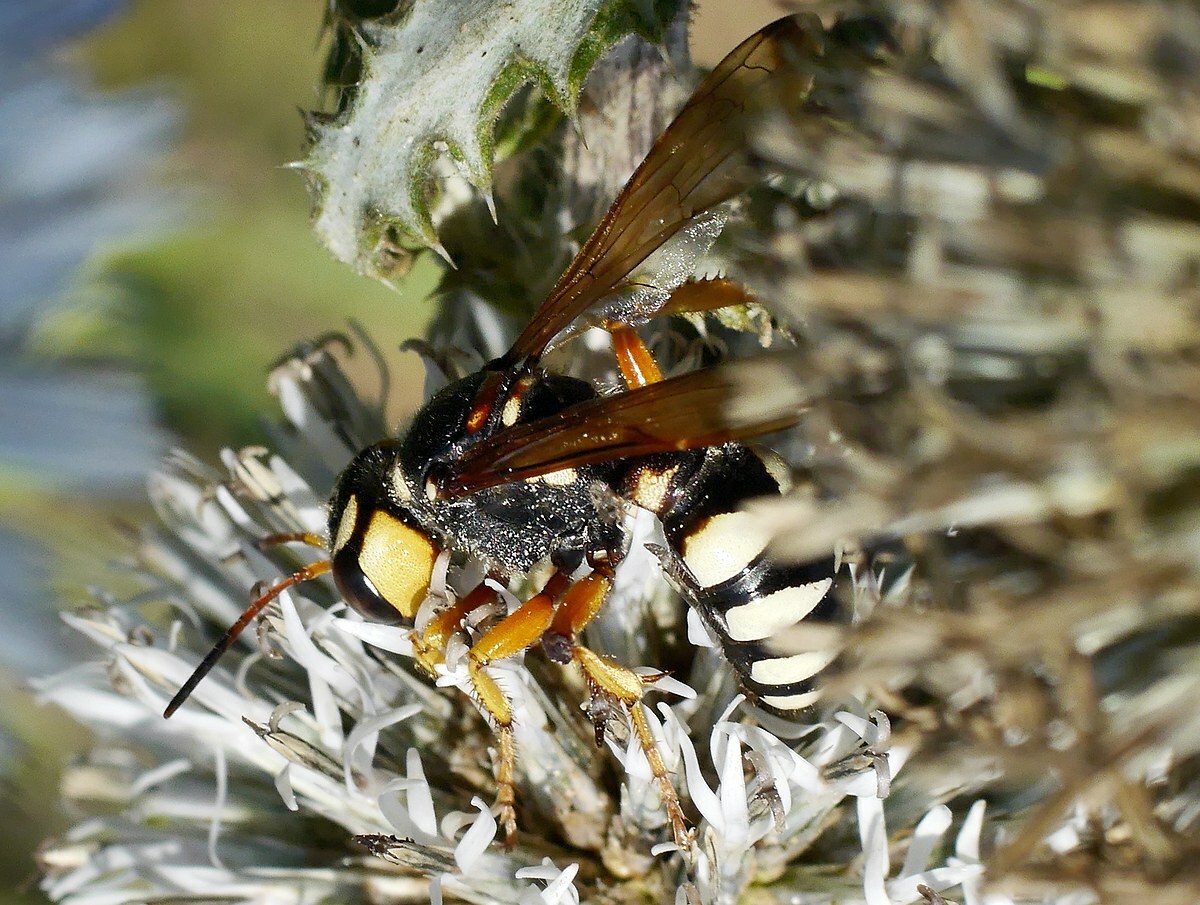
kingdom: Animalia
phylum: Arthropoda
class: Insecta
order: Hymenoptera
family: Crabronidae
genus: Cerceris
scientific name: Cerceris tuberculata
